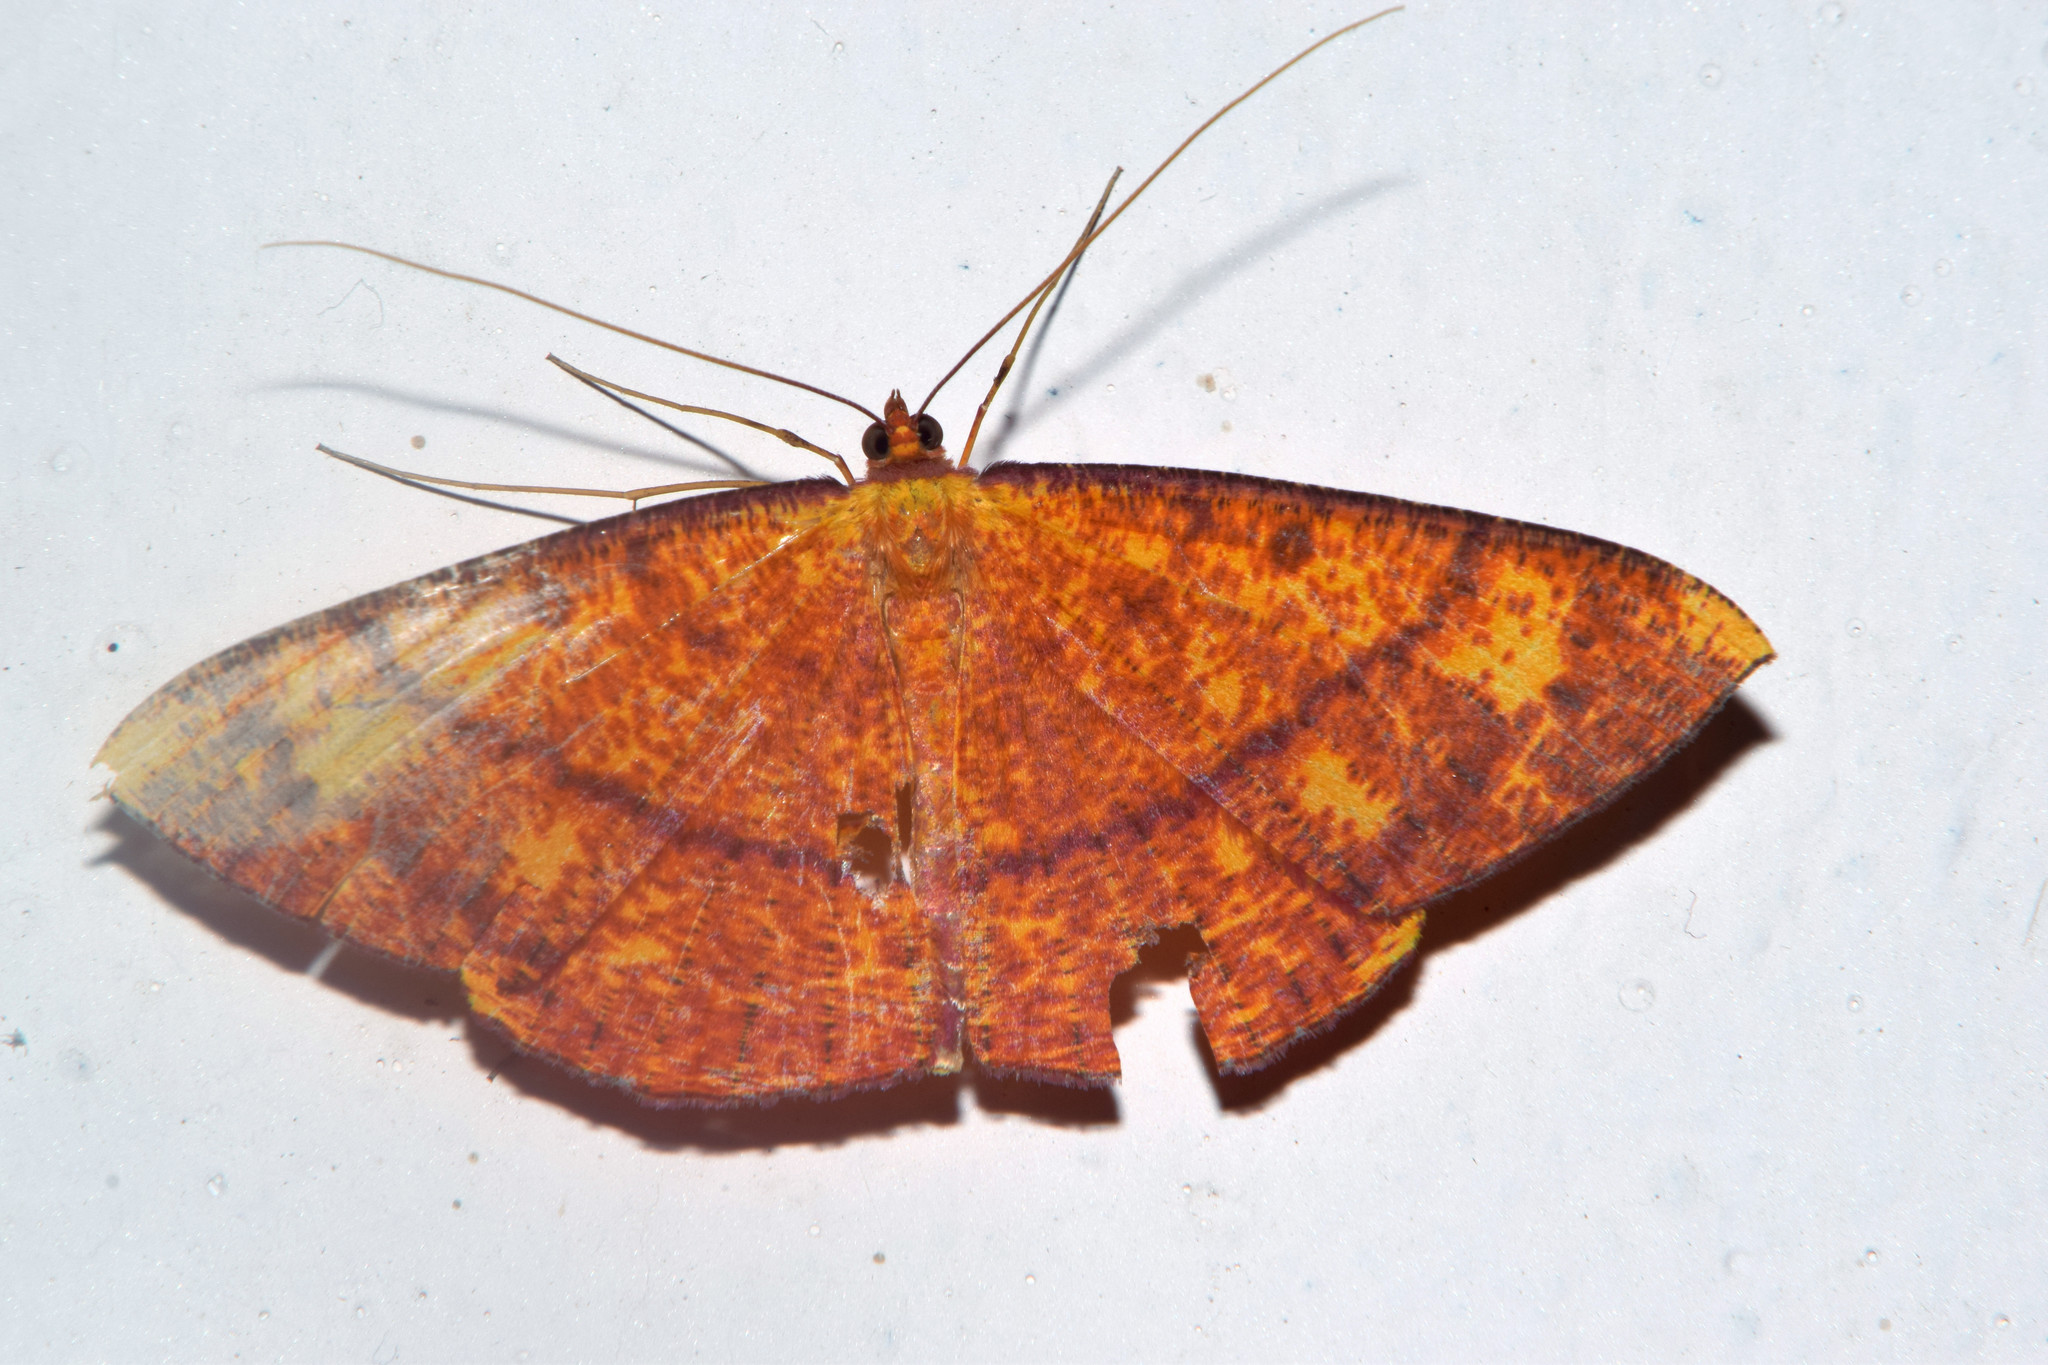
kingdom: Animalia
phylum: Arthropoda
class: Insecta
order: Lepidoptera
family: Geometridae
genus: Eumelea
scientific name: Eumelea rosalia
